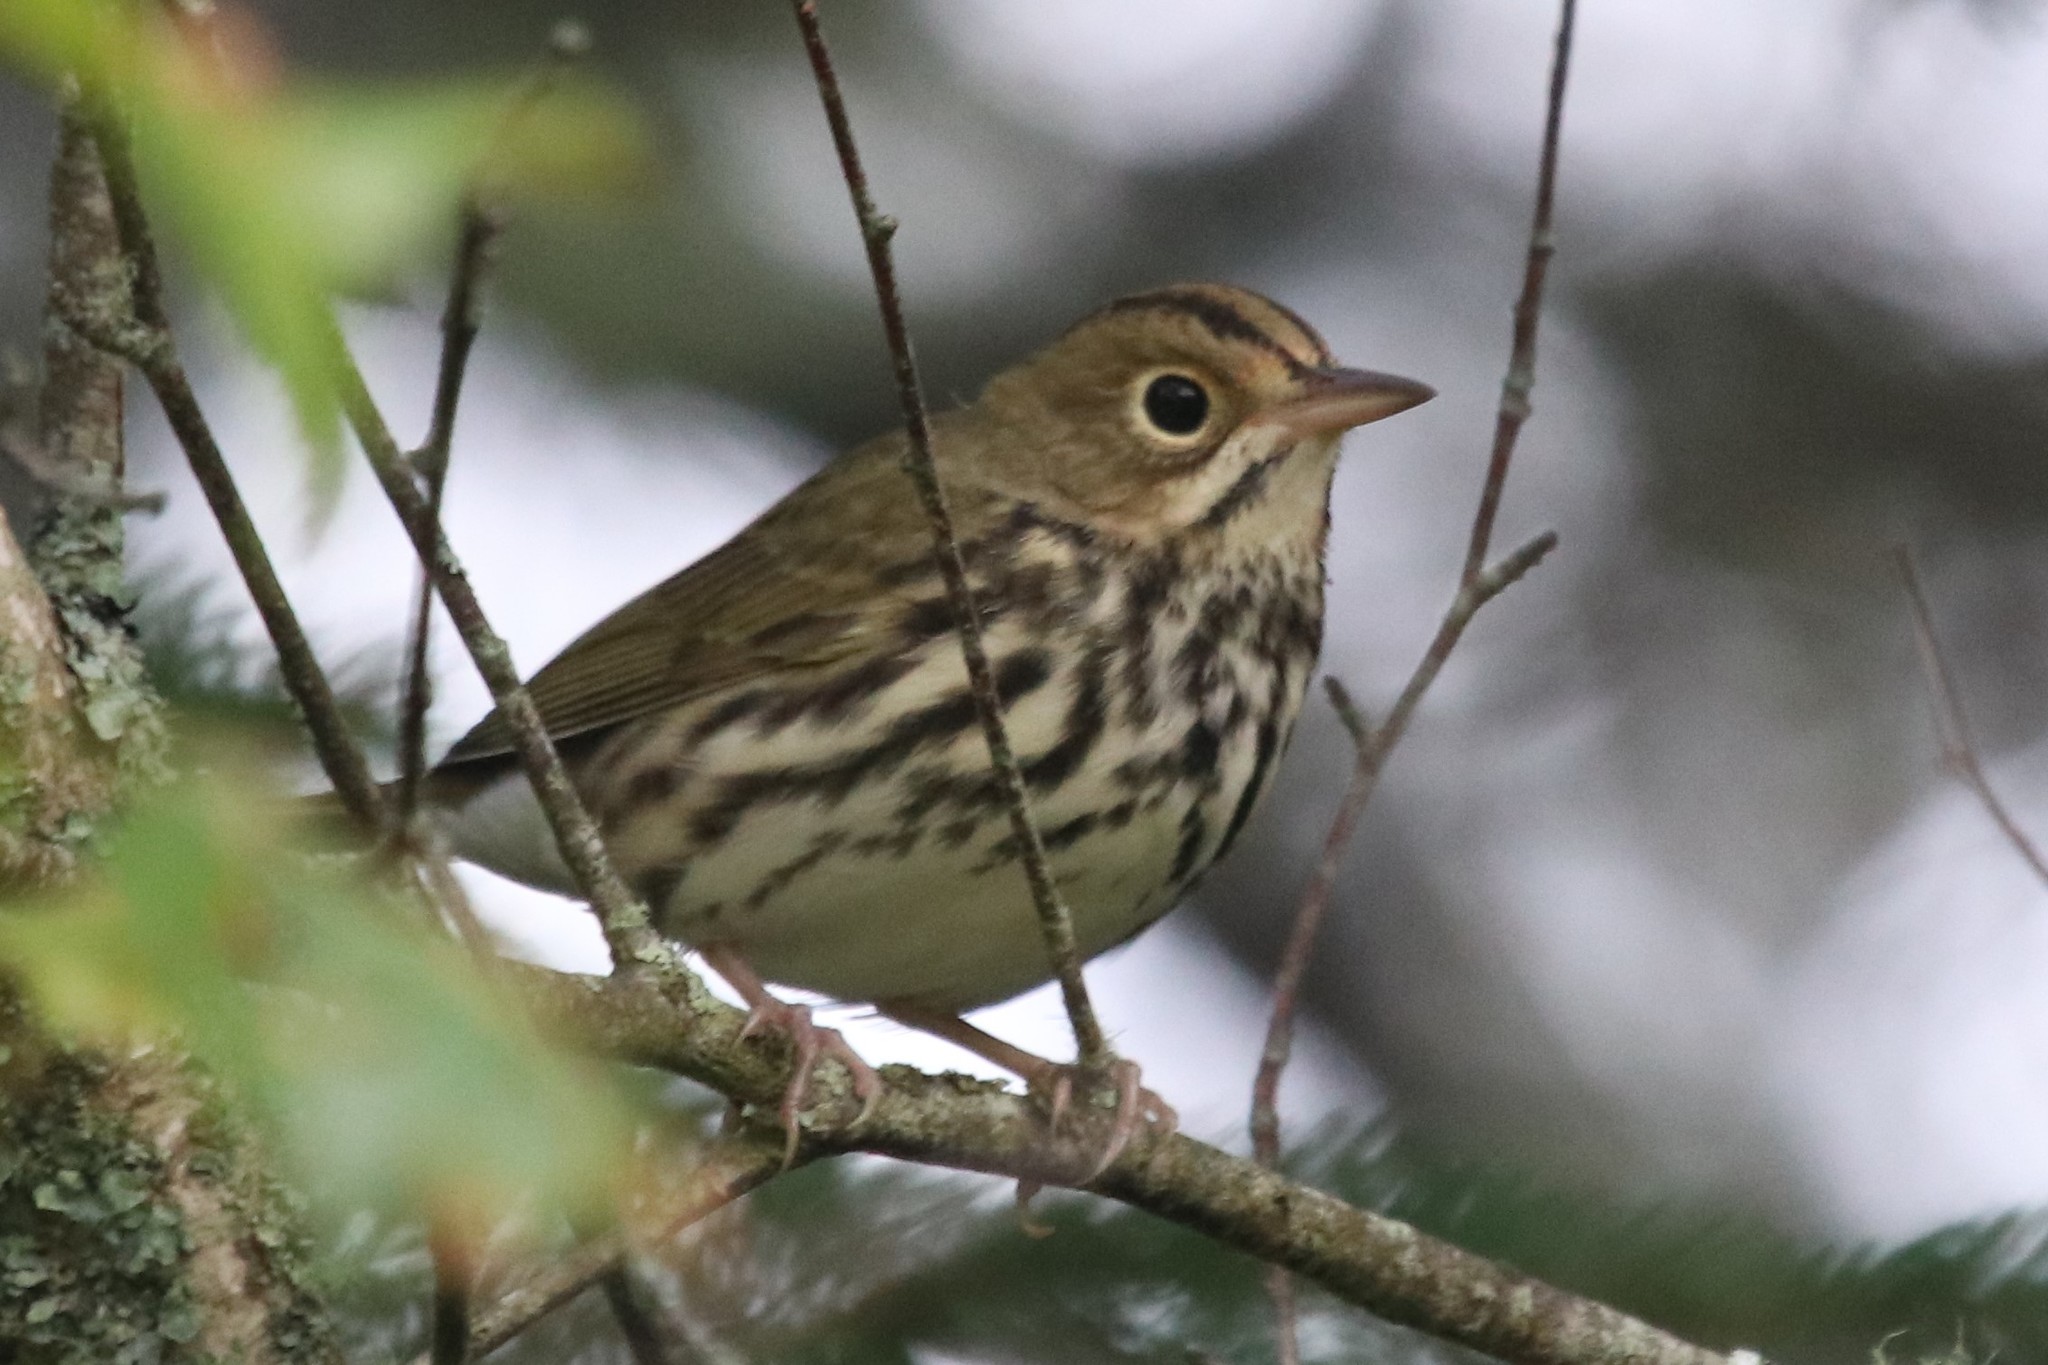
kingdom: Animalia
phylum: Chordata
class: Aves
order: Passeriformes
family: Parulidae
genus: Seiurus
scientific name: Seiurus aurocapilla
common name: Ovenbird
